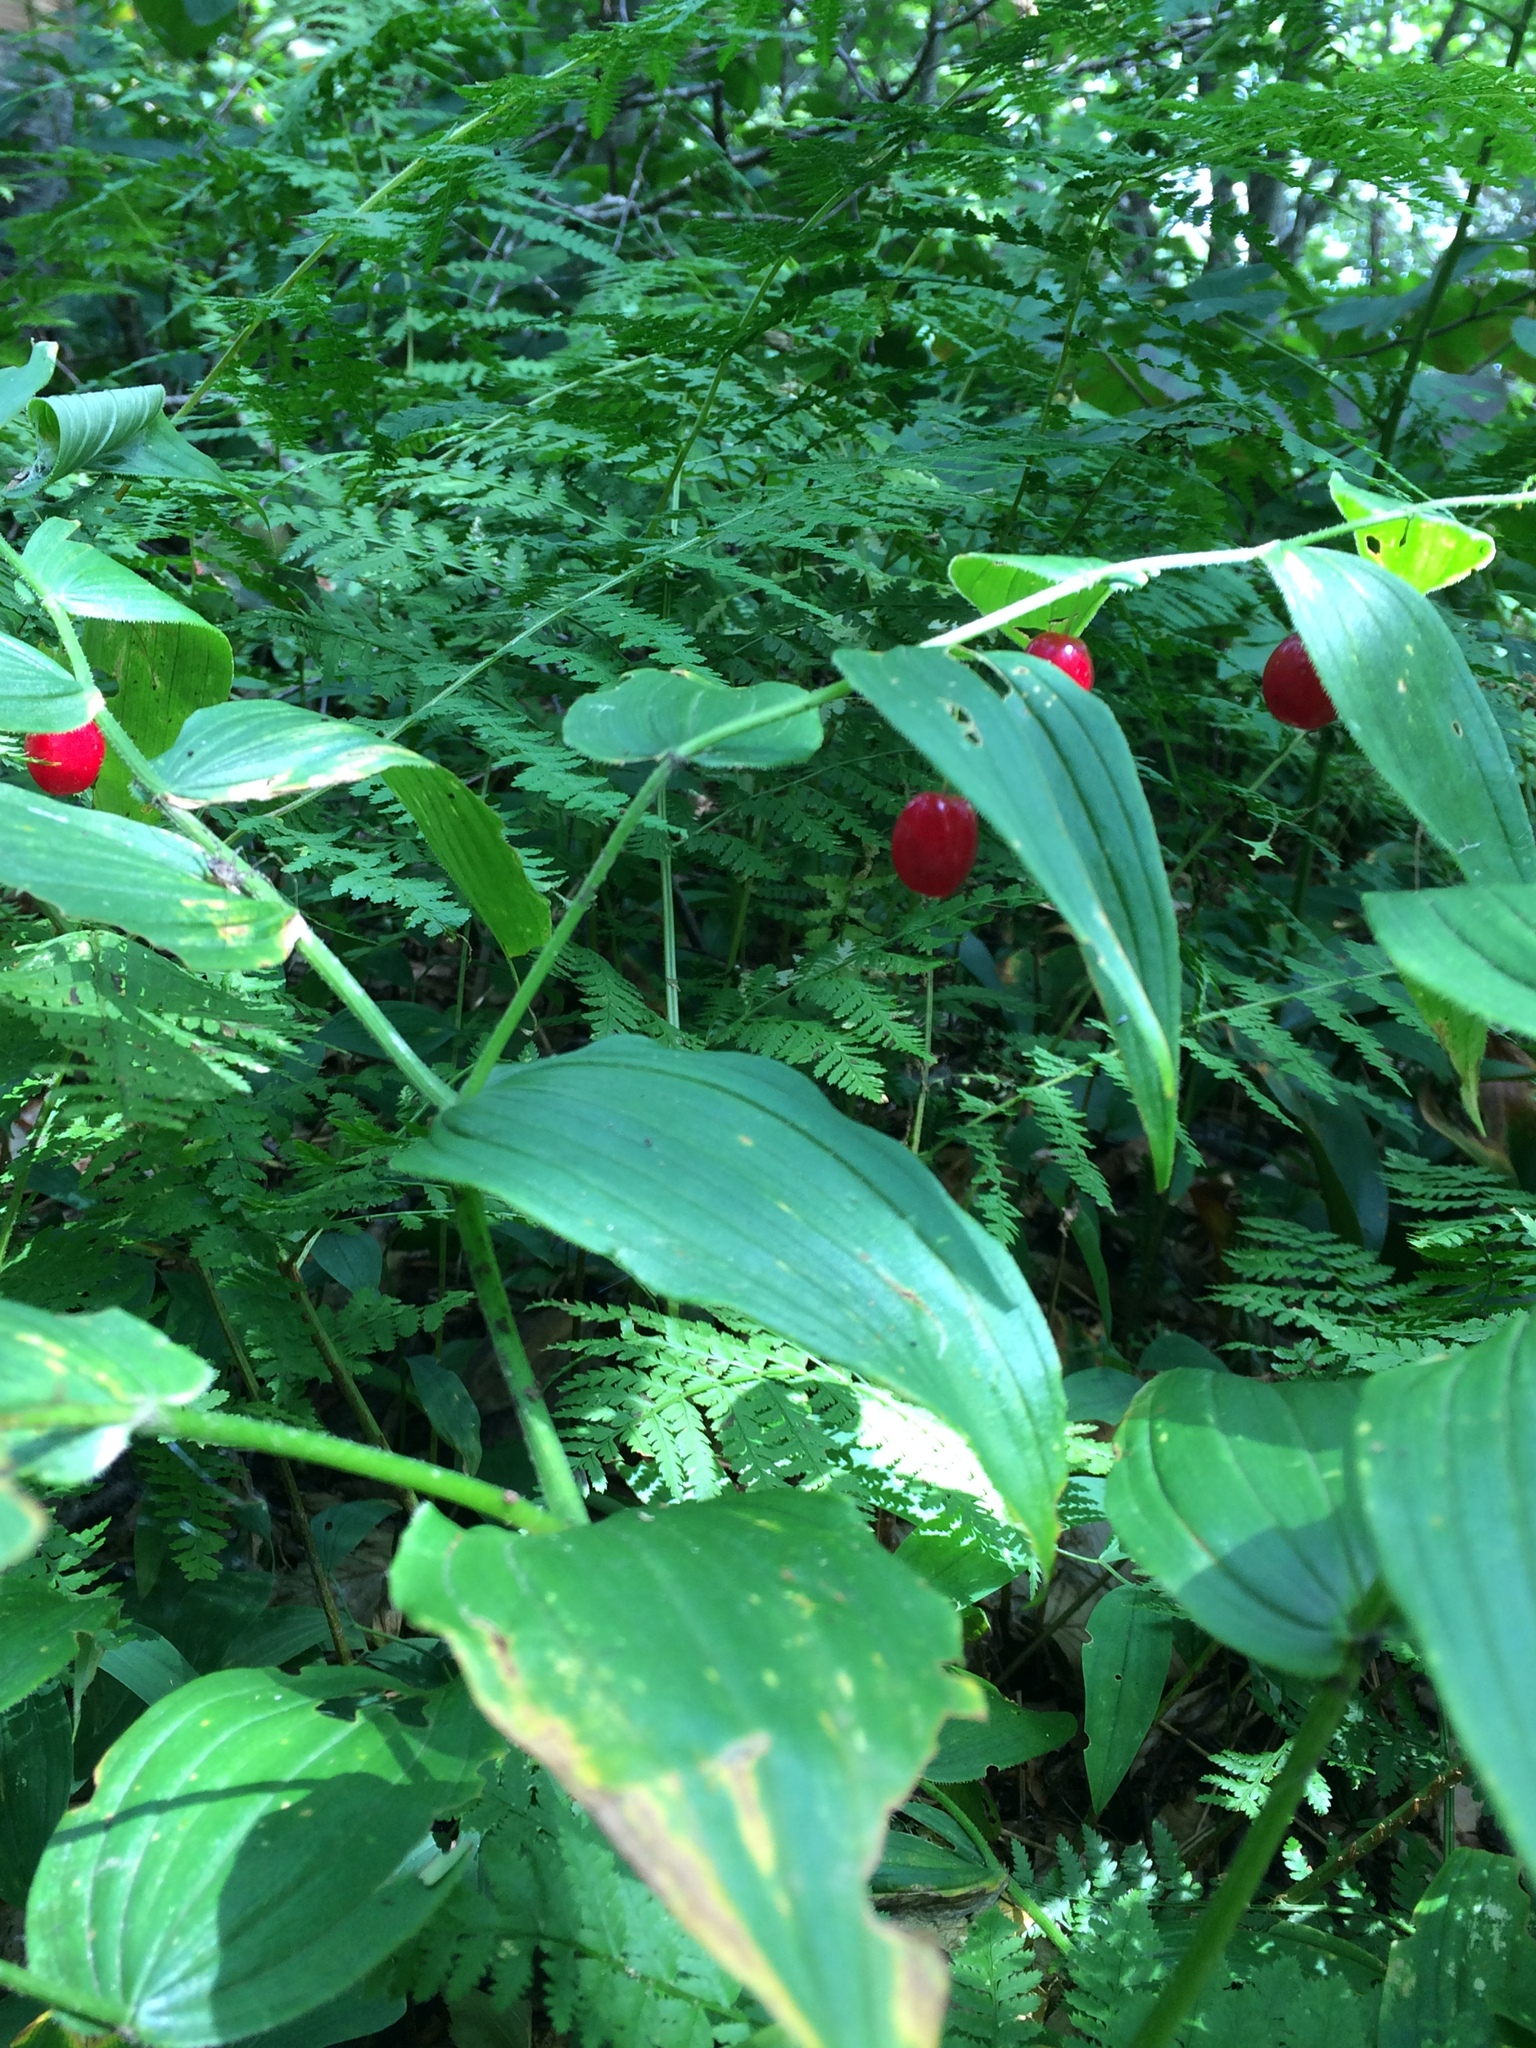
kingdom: Plantae
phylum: Tracheophyta
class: Liliopsida
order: Liliales
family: Liliaceae
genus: Streptopus
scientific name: Streptopus lanceolatus
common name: Rose mandarin
